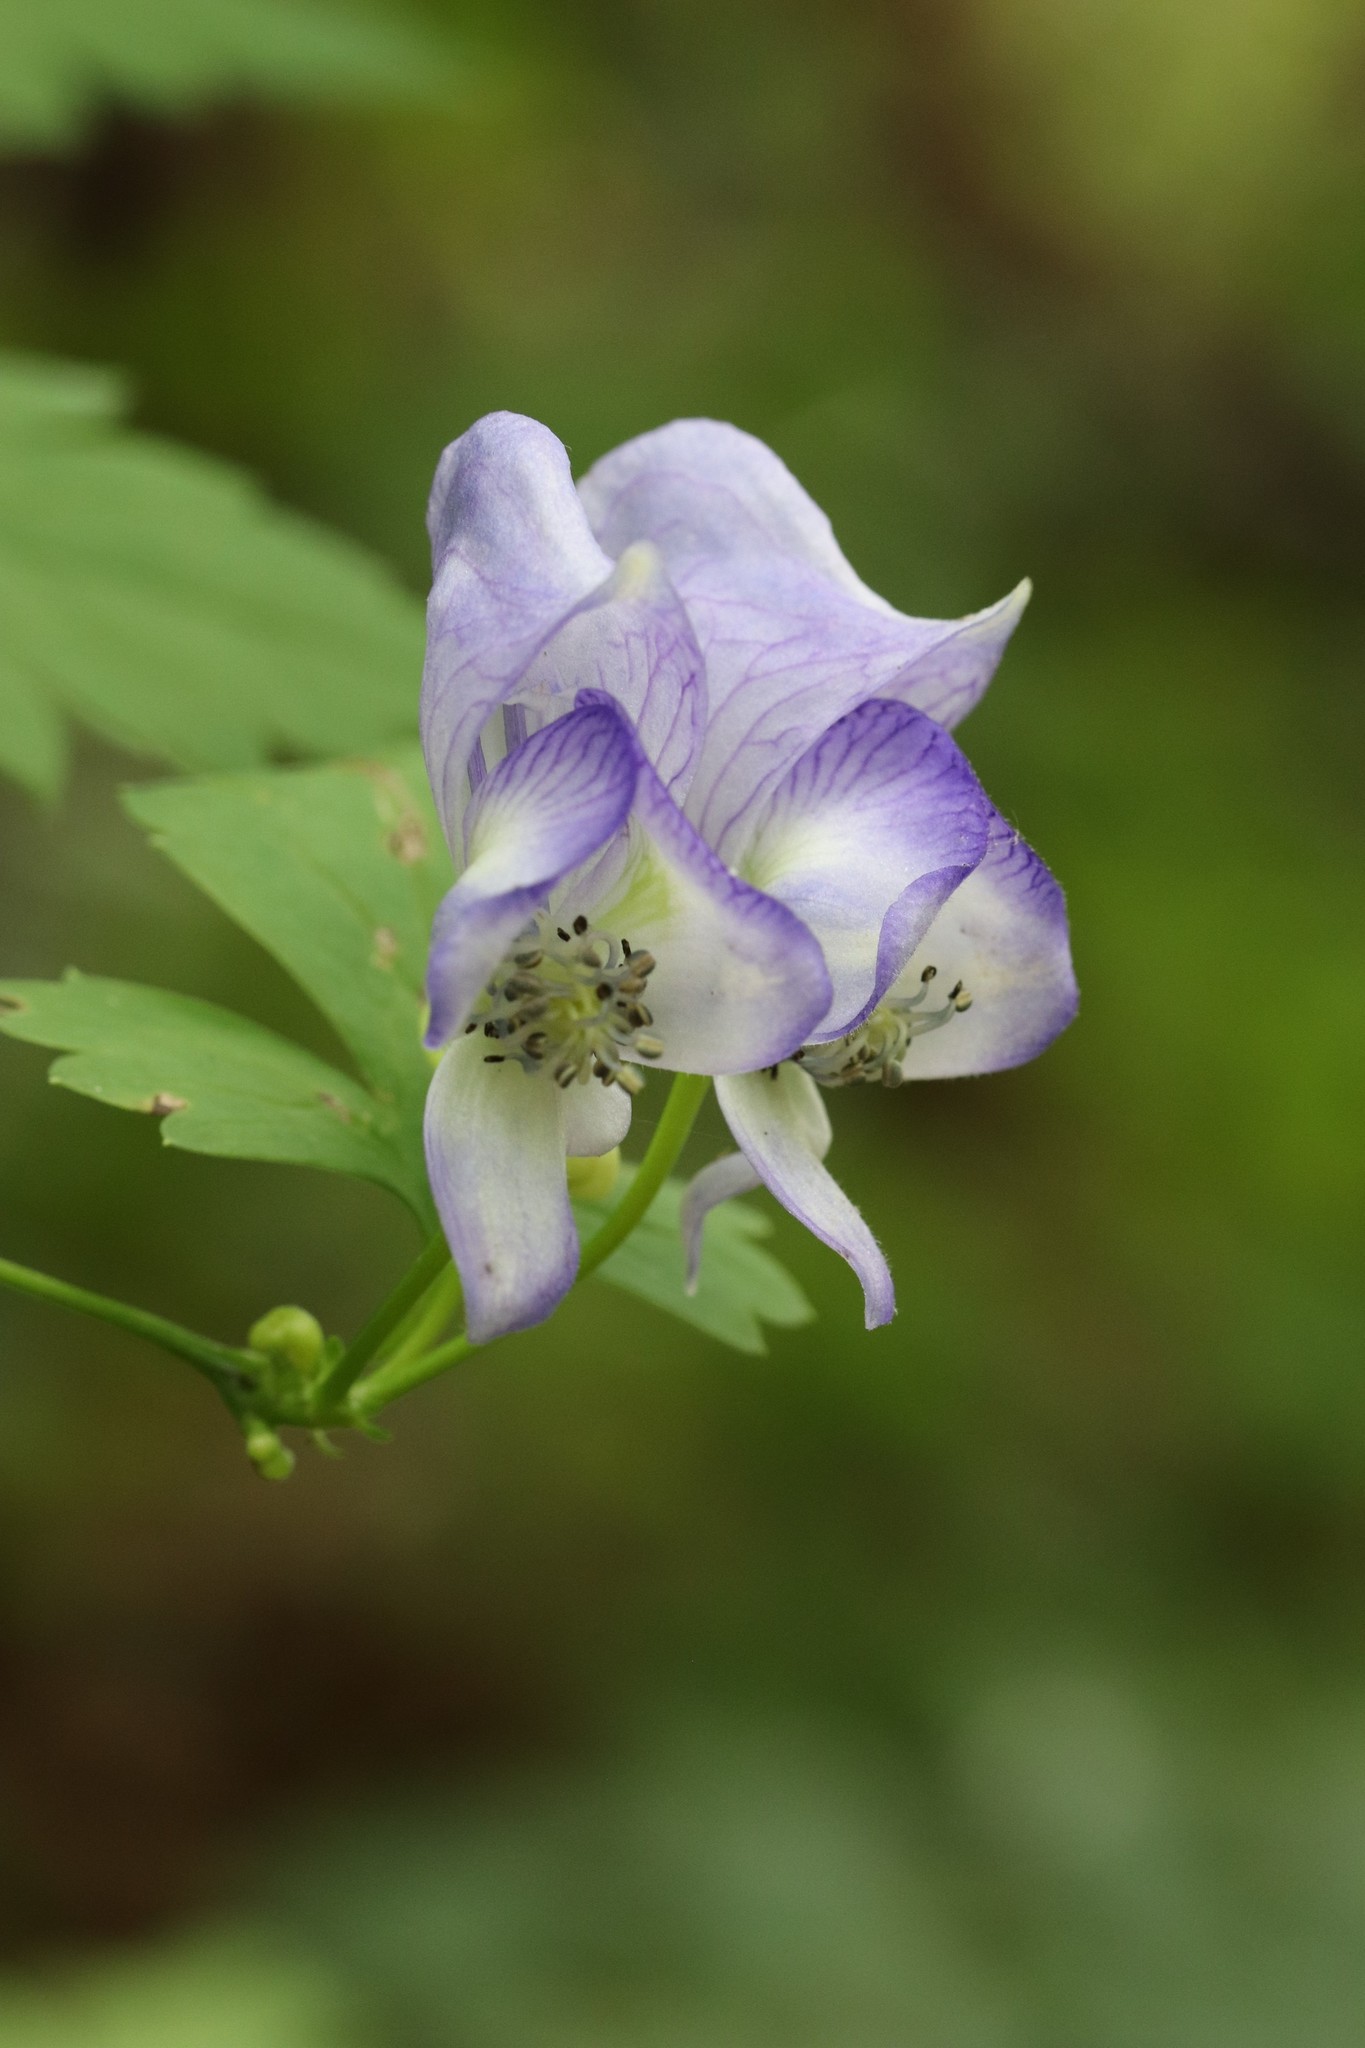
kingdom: Plantae
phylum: Tracheophyta
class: Magnoliopsida
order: Ranunculales
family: Ranunculaceae
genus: Aconitum
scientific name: Aconitum sczukinii
